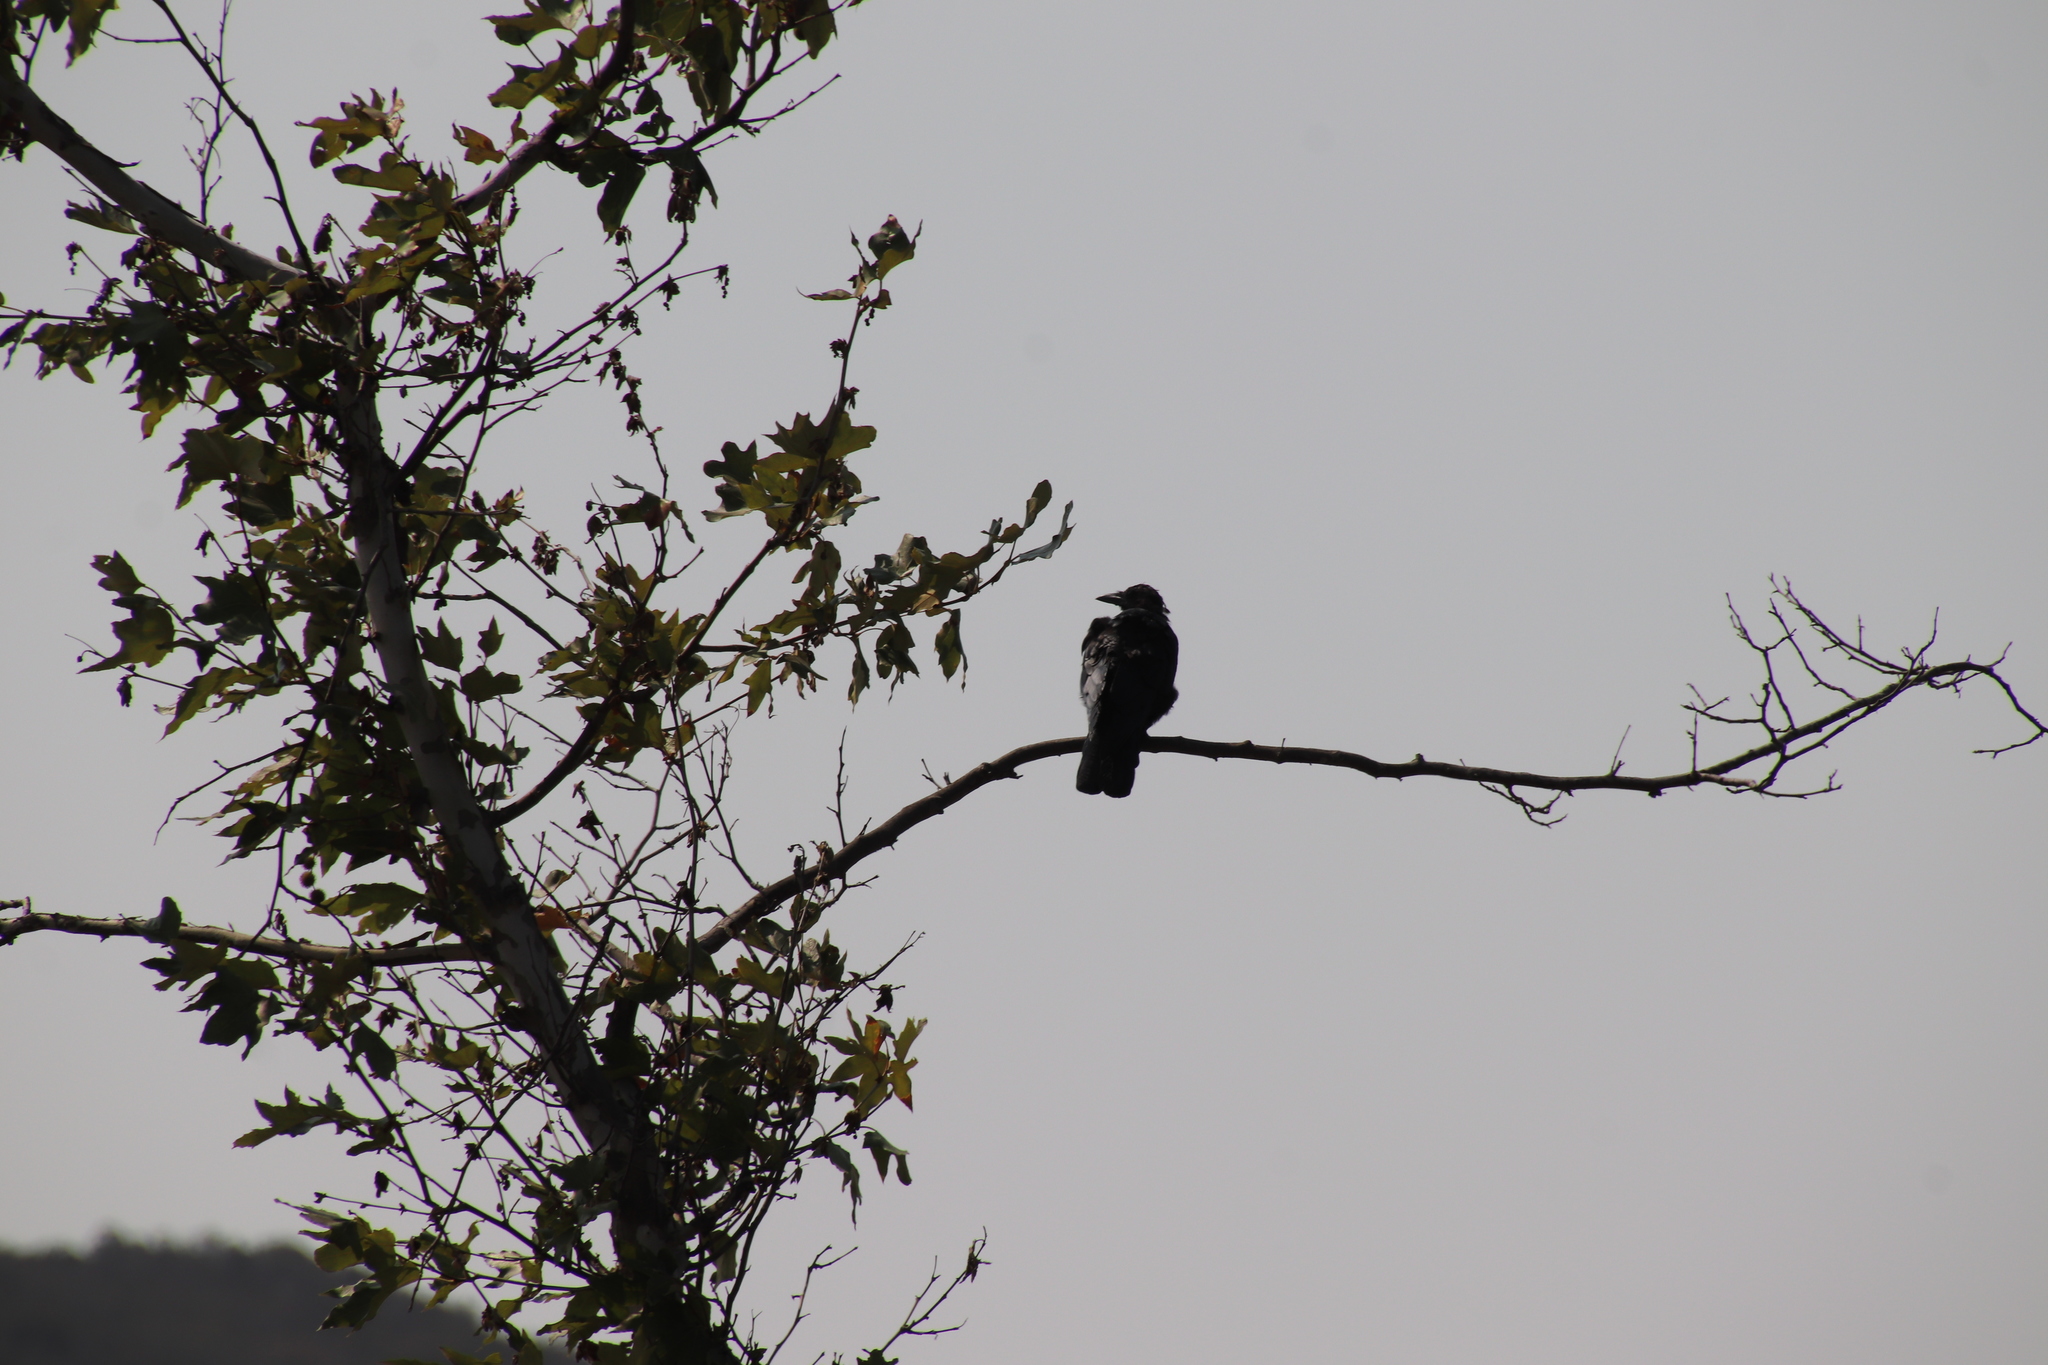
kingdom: Animalia
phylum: Chordata
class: Aves
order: Passeriformes
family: Corvidae
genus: Corvus
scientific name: Corvus brachyrhynchos
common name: American crow
